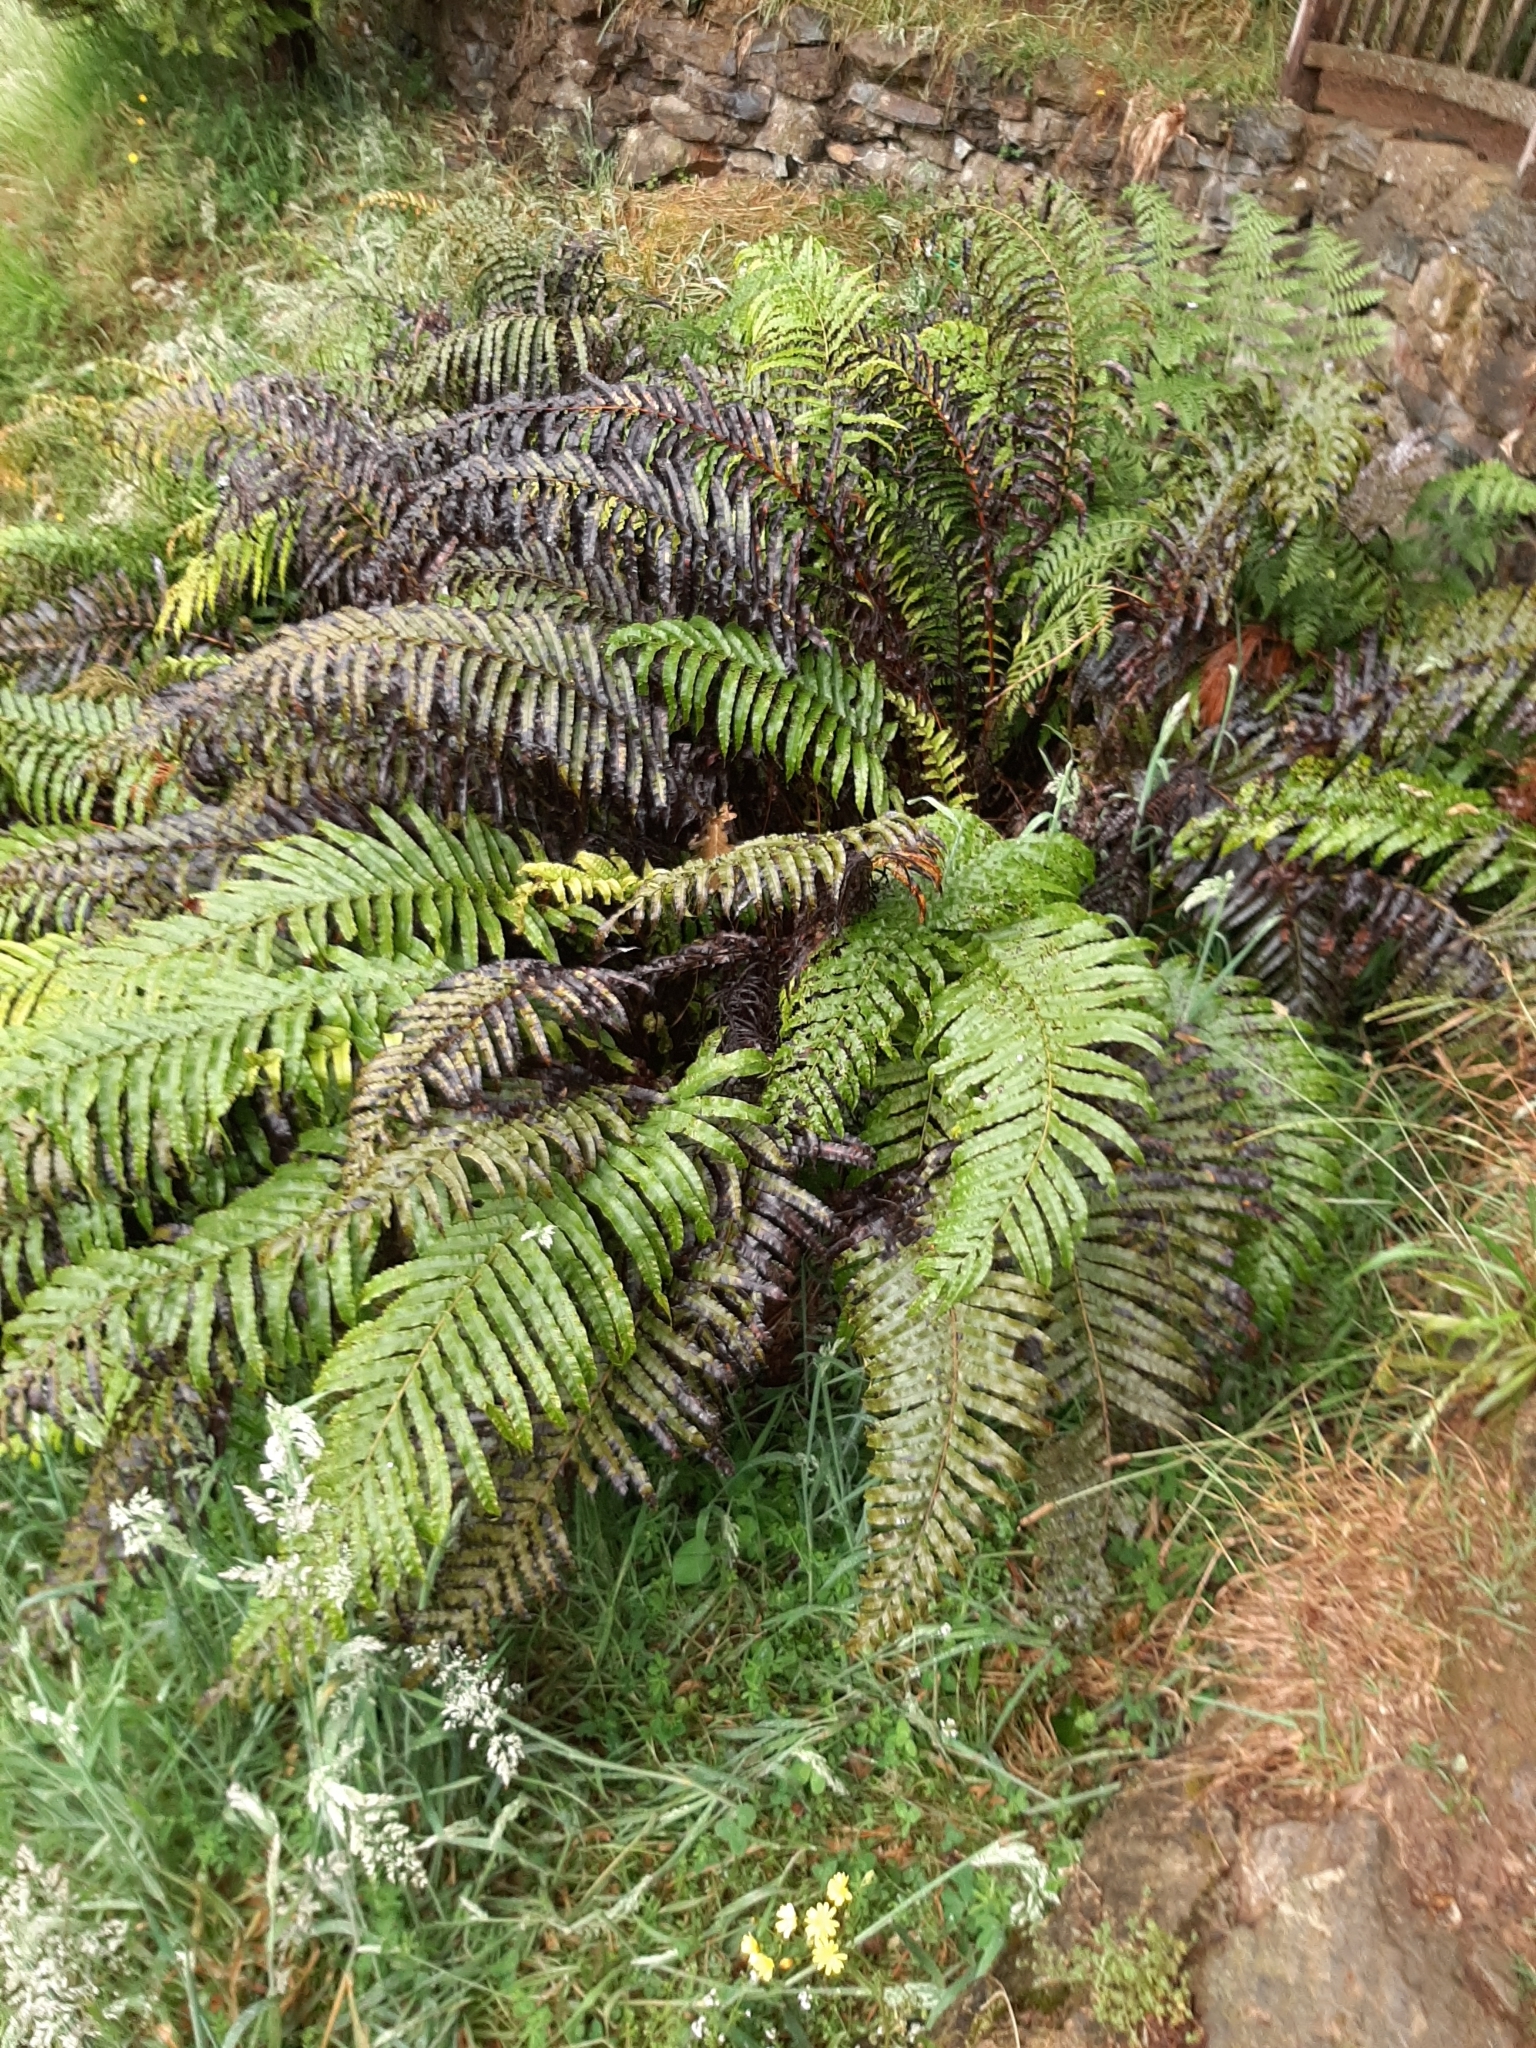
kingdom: Plantae
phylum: Tracheophyta
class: Polypodiopsida
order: Polypodiales
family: Blechnaceae
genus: Parablechnum
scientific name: Parablechnum novae-zelandiae
